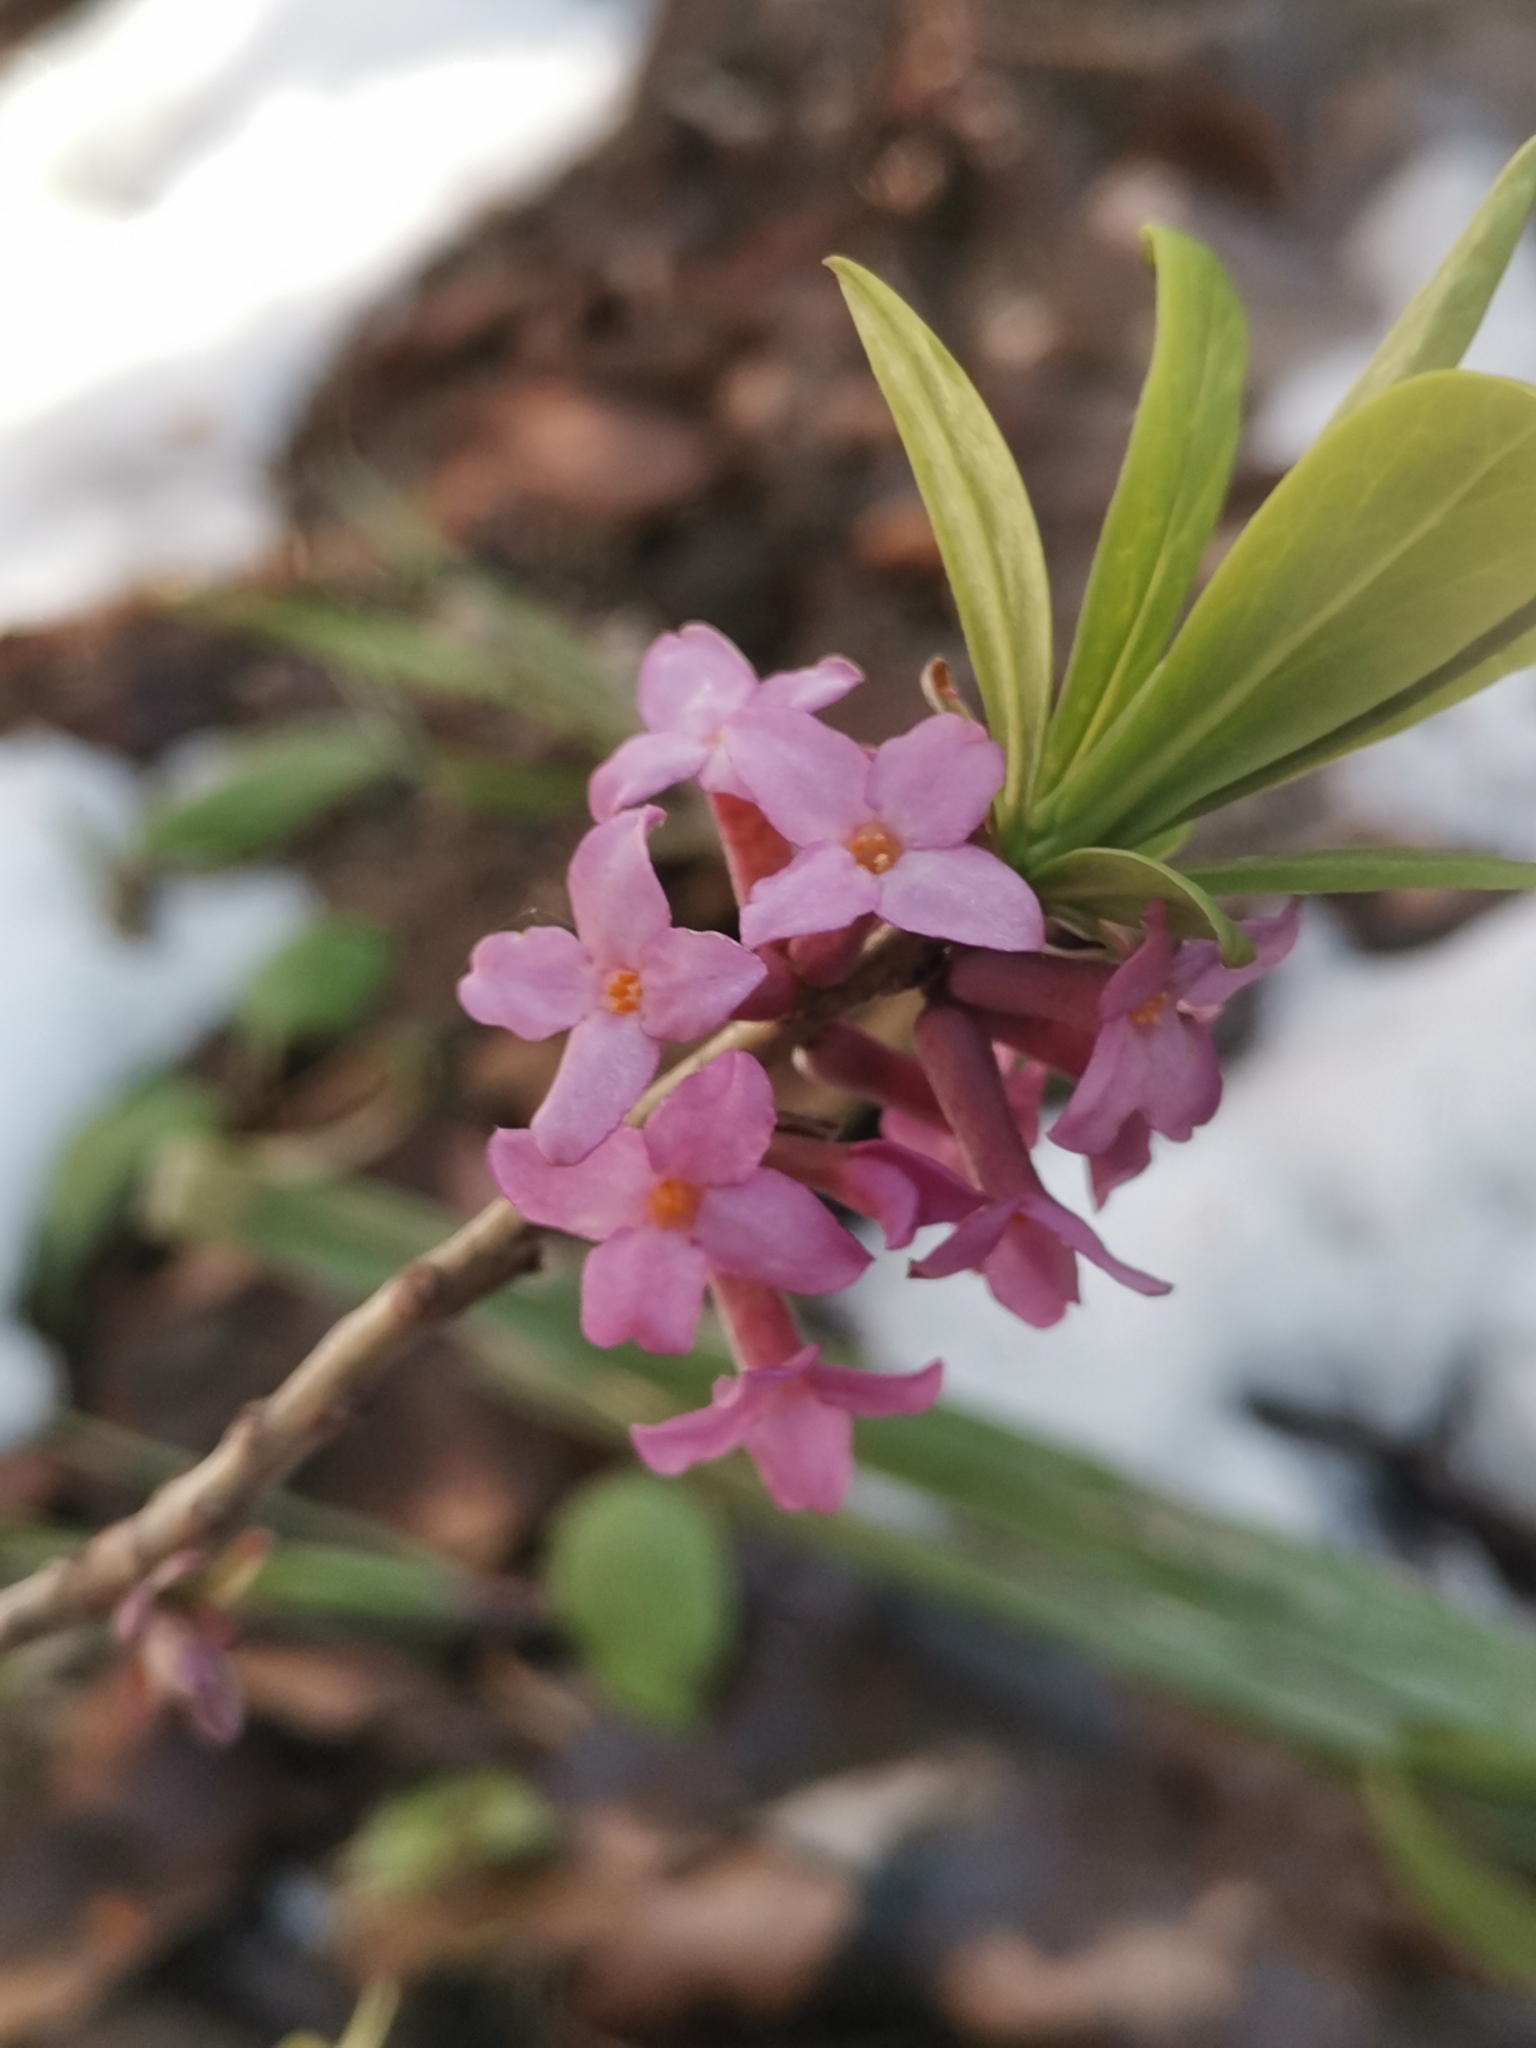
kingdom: Plantae
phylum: Tracheophyta
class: Magnoliopsida
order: Malvales
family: Thymelaeaceae
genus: Daphne
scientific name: Daphne mezereum
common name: Mezereon
